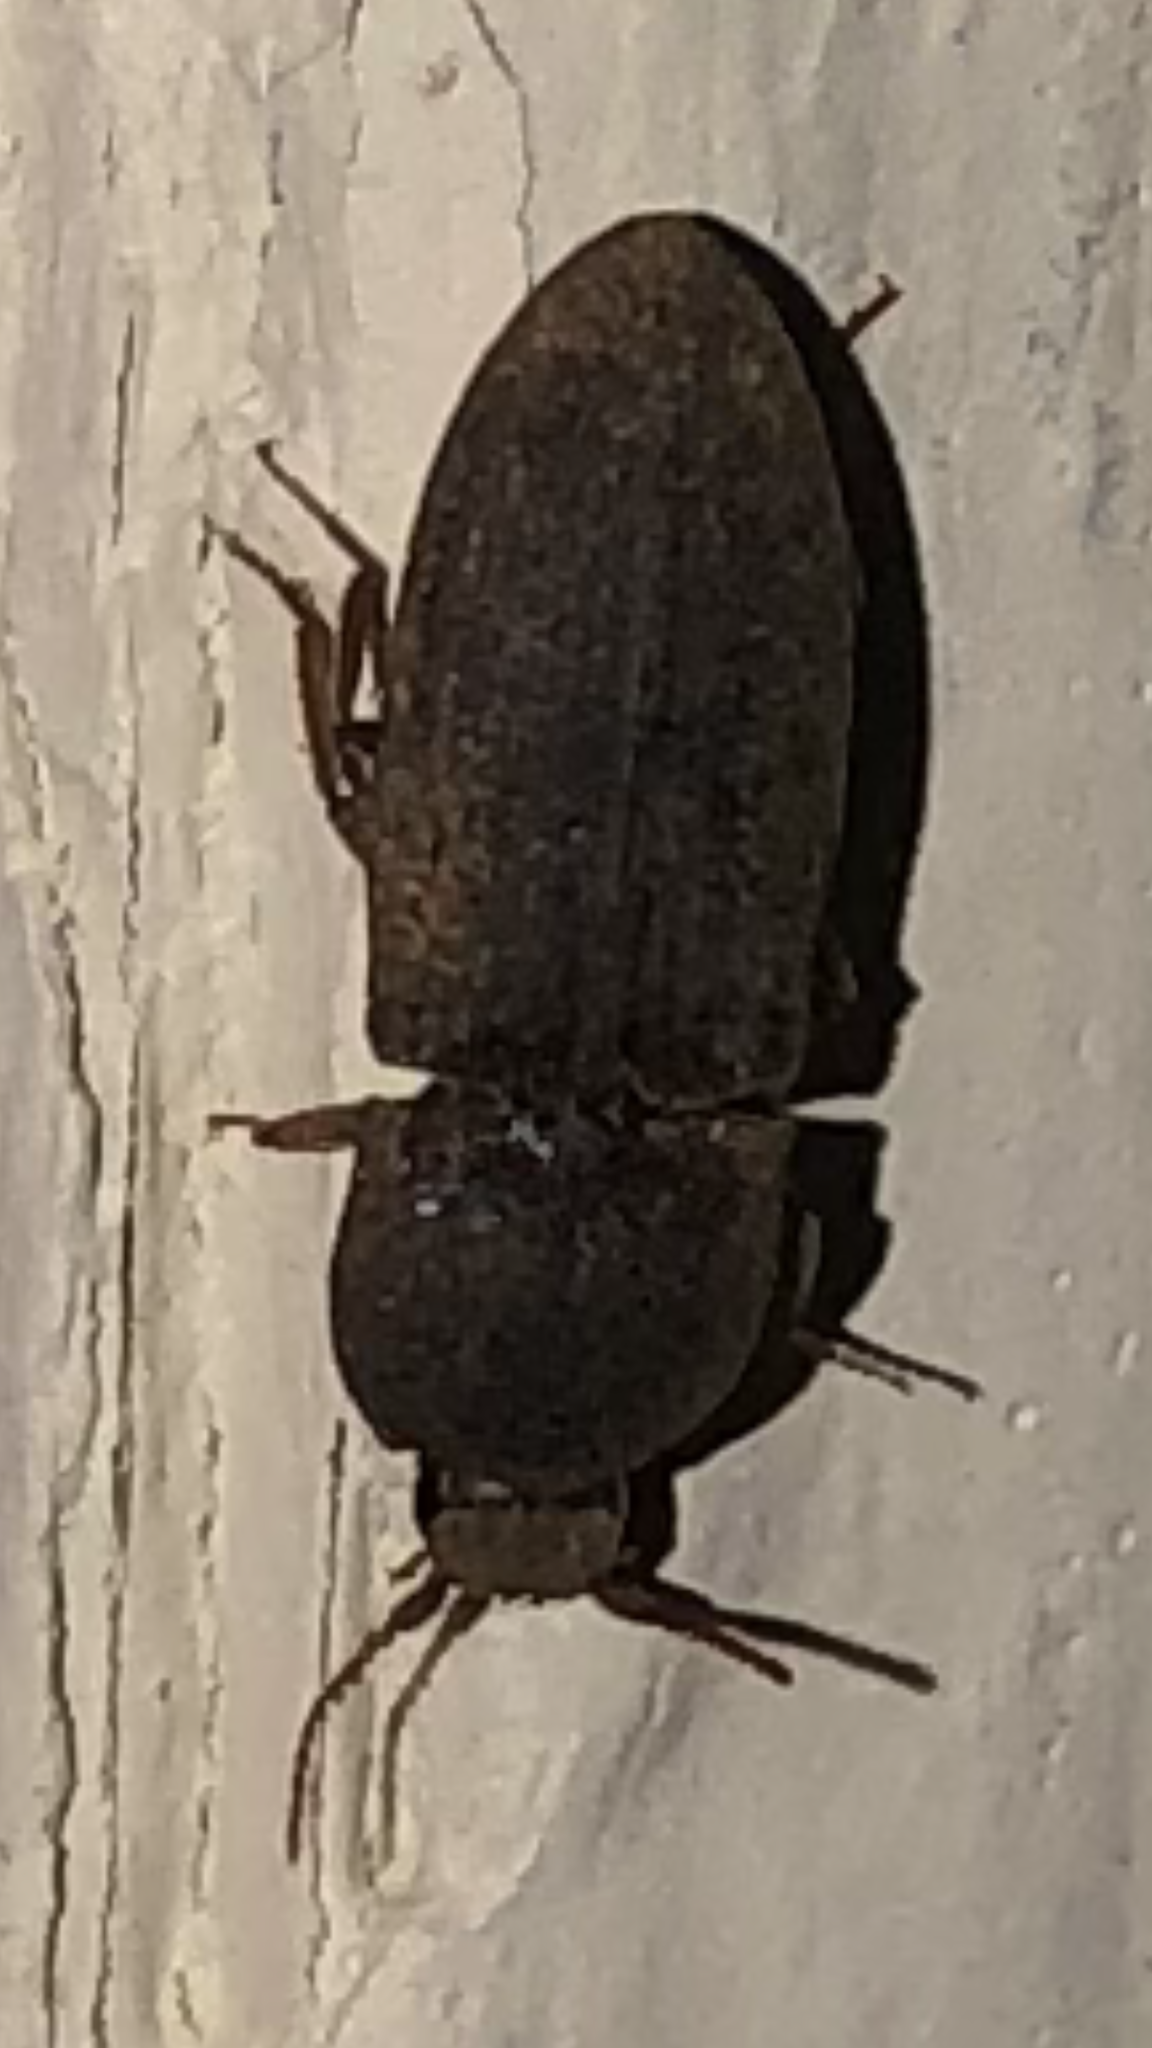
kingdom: Animalia
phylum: Arthropoda
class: Insecta
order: Coleoptera
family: Elateridae
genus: Agrypnus
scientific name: Agrypnus rectangularis
